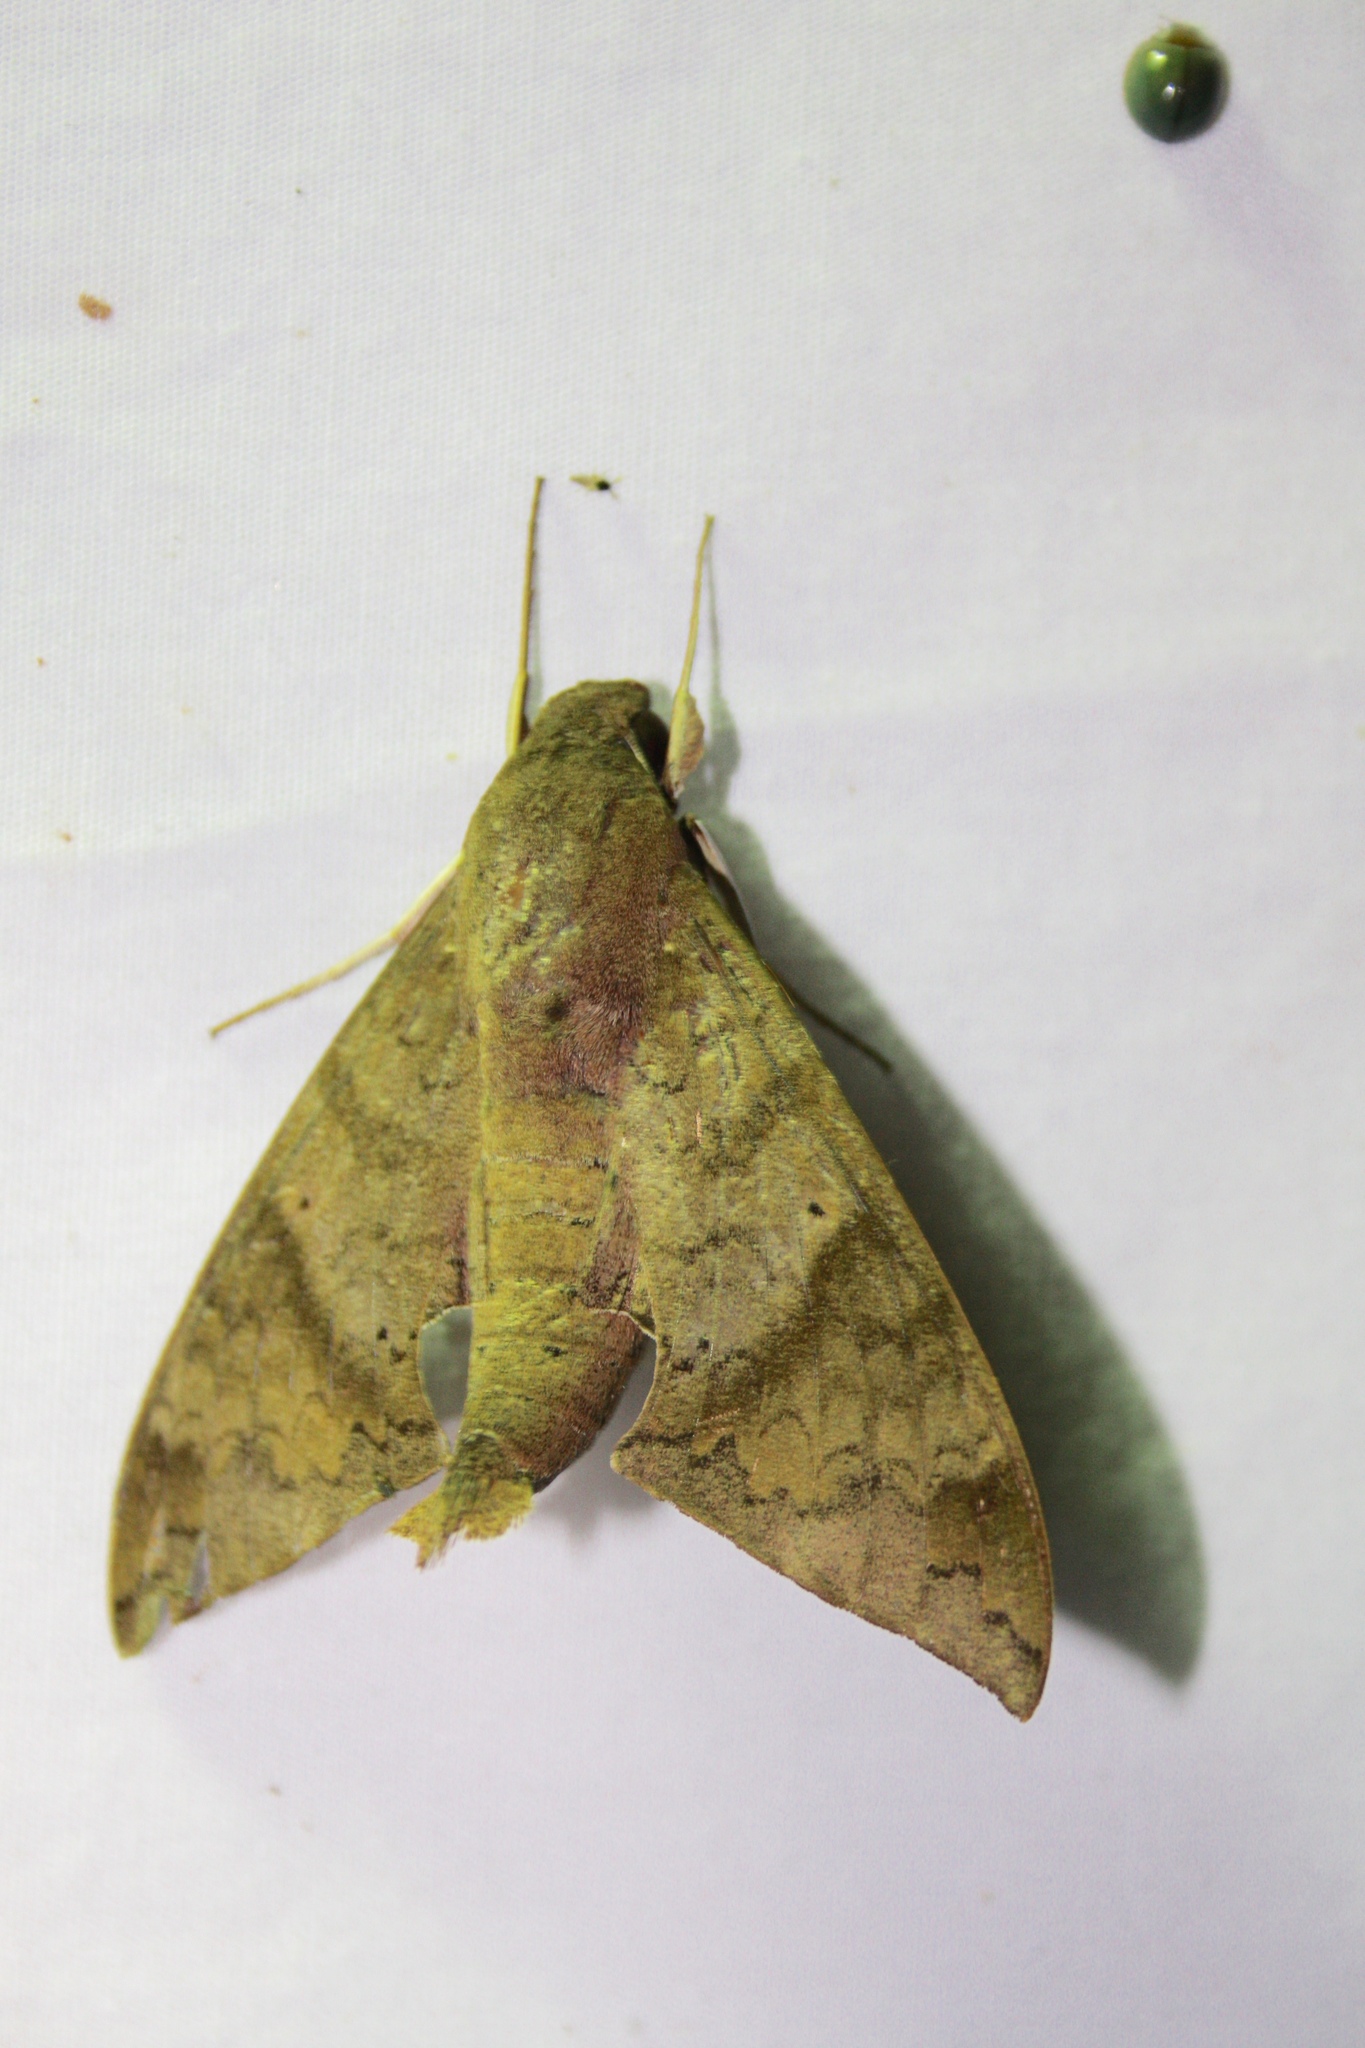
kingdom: Animalia
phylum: Arthropoda
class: Insecta
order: Lepidoptera
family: Sphingidae
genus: Pachylioides
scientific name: Pachylioides resumens
